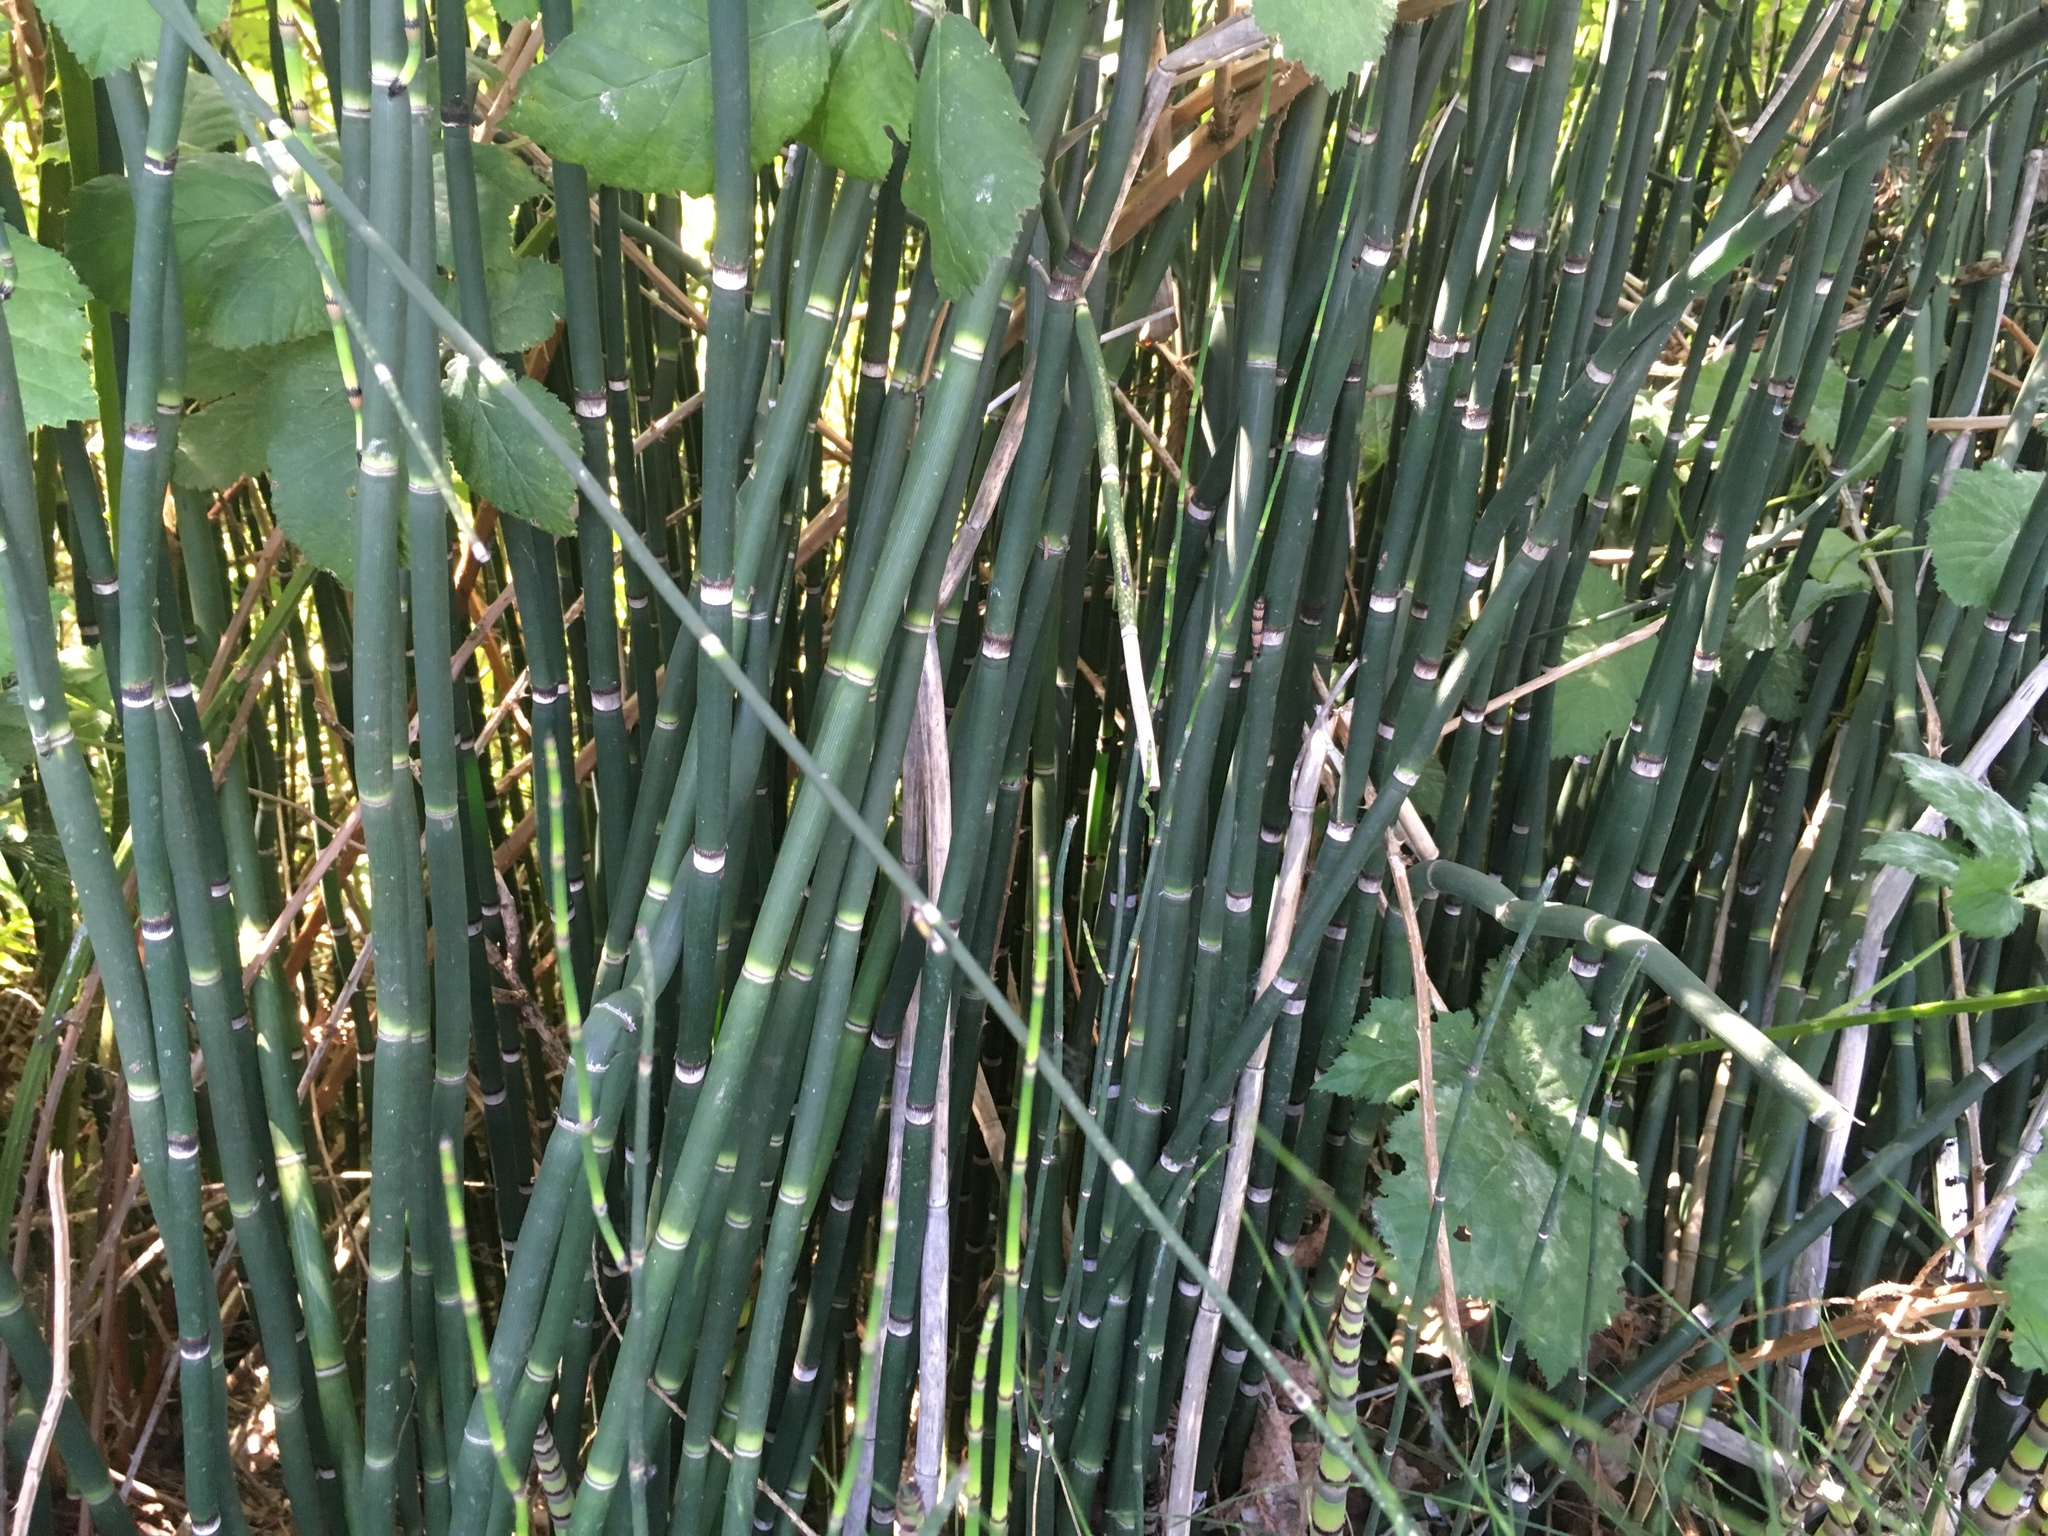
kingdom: Plantae
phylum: Tracheophyta
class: Polypodiopsida
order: Equisetales
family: Equisetaceae
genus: Equisetum
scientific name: Equisetum hyemale
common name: Rough horsetail
